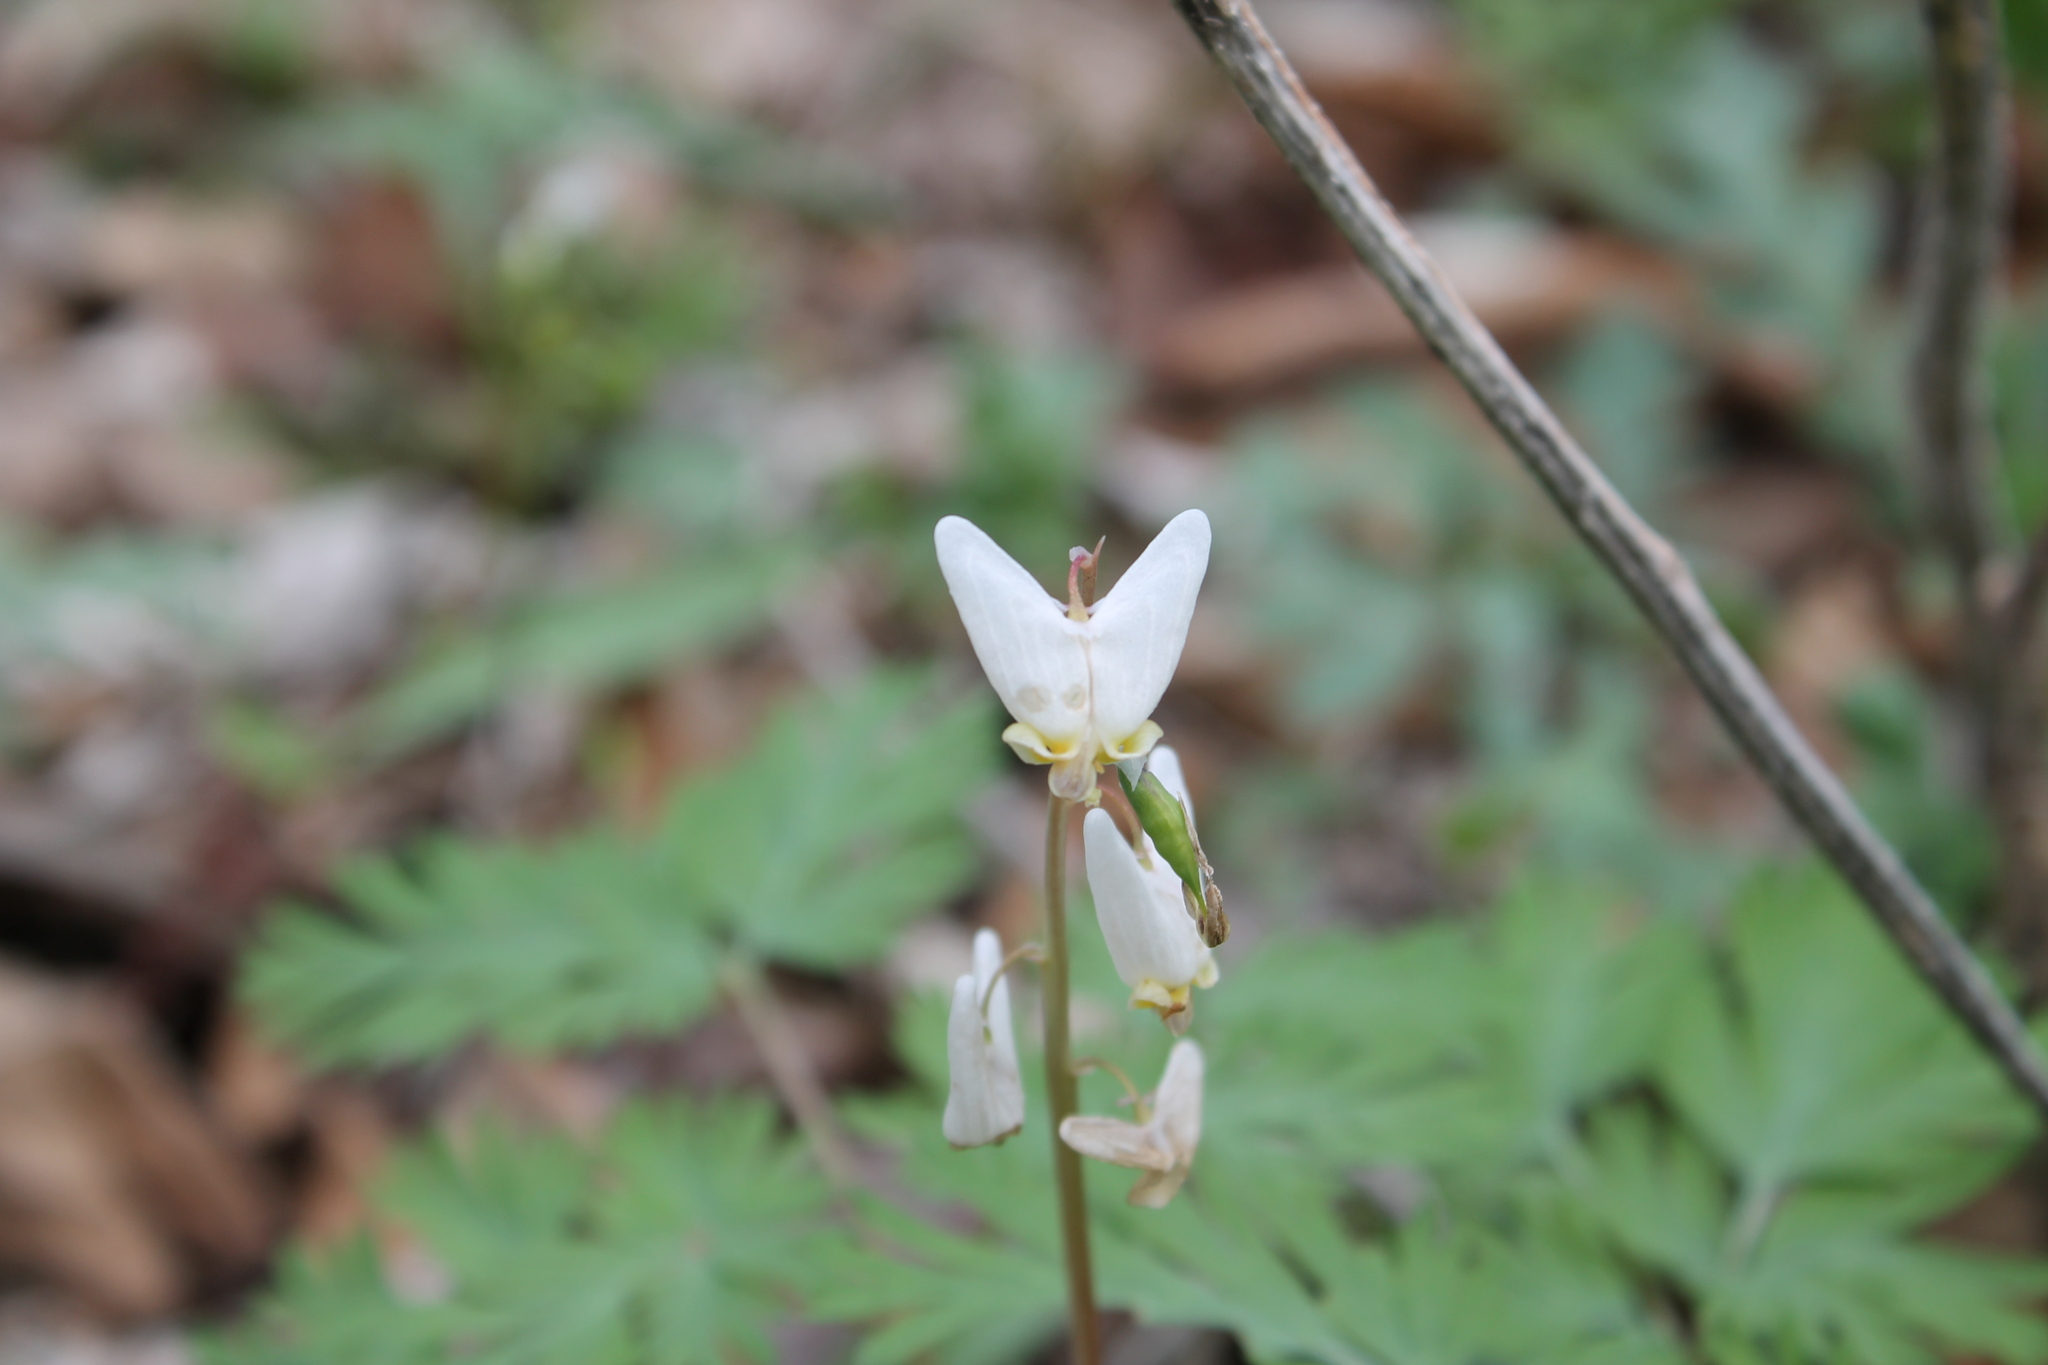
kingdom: Plantae
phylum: Tracheophyta
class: Magnoliopsida
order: Ranunculales
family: Papaveraceae
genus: Dicentra
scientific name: Dicentra cucullaria
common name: Dutchman's breeches
